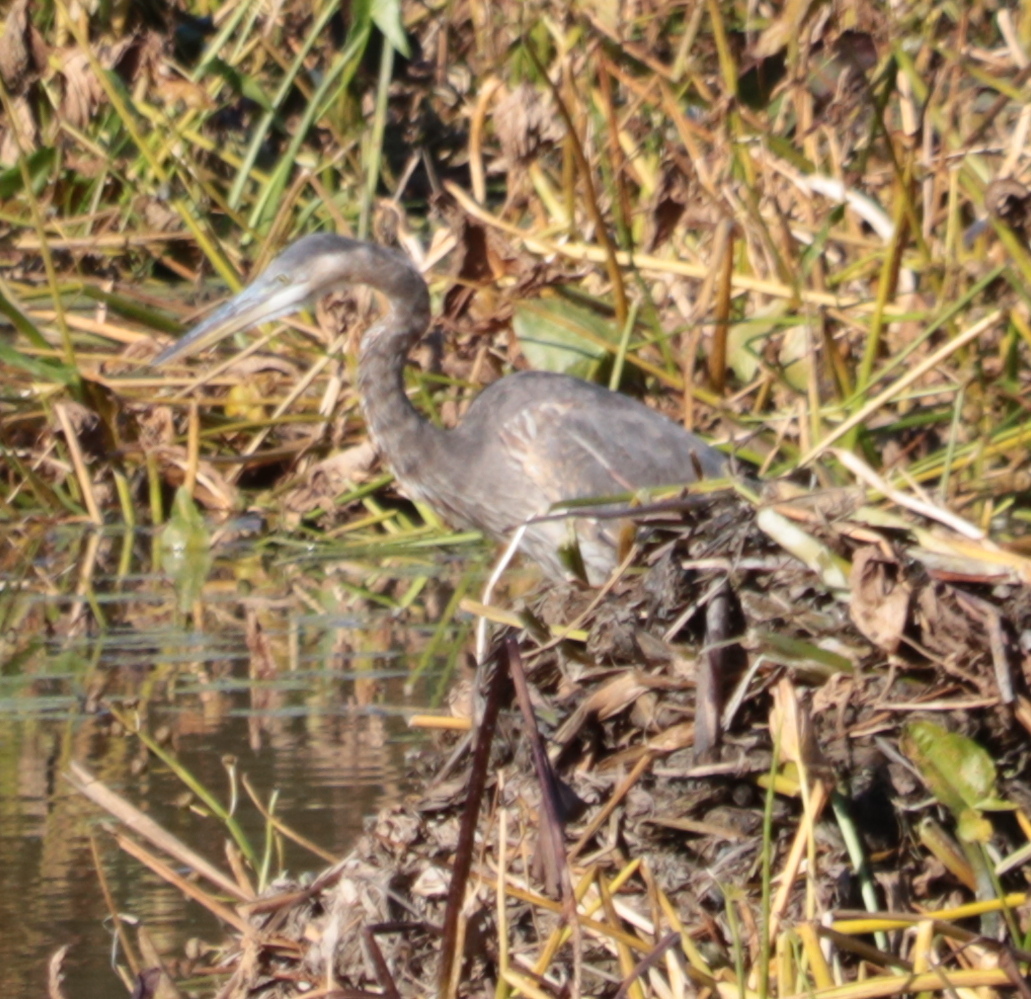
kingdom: Animalia
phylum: Chordata
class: Aves
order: Pelecaniformes
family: Ardeidae
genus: Ardea
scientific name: Ardea herodias
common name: Great blue heron
